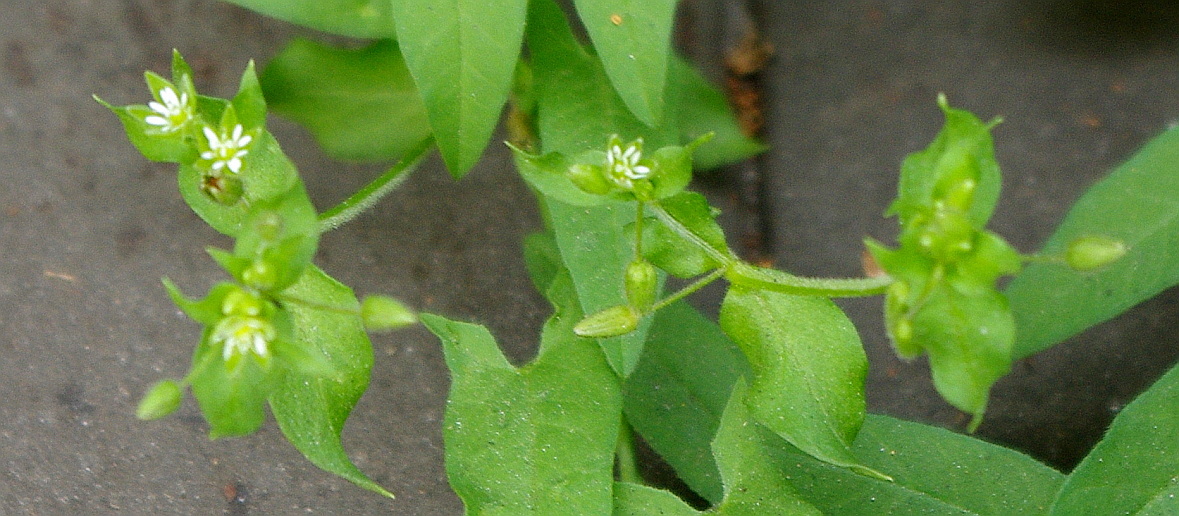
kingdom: Plantae
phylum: Tracheophyta
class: Magnoliopsida
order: Caryophyllales
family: Caryophyllaceae
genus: Stellaria
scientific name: Stellaria media
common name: Common chickweed
